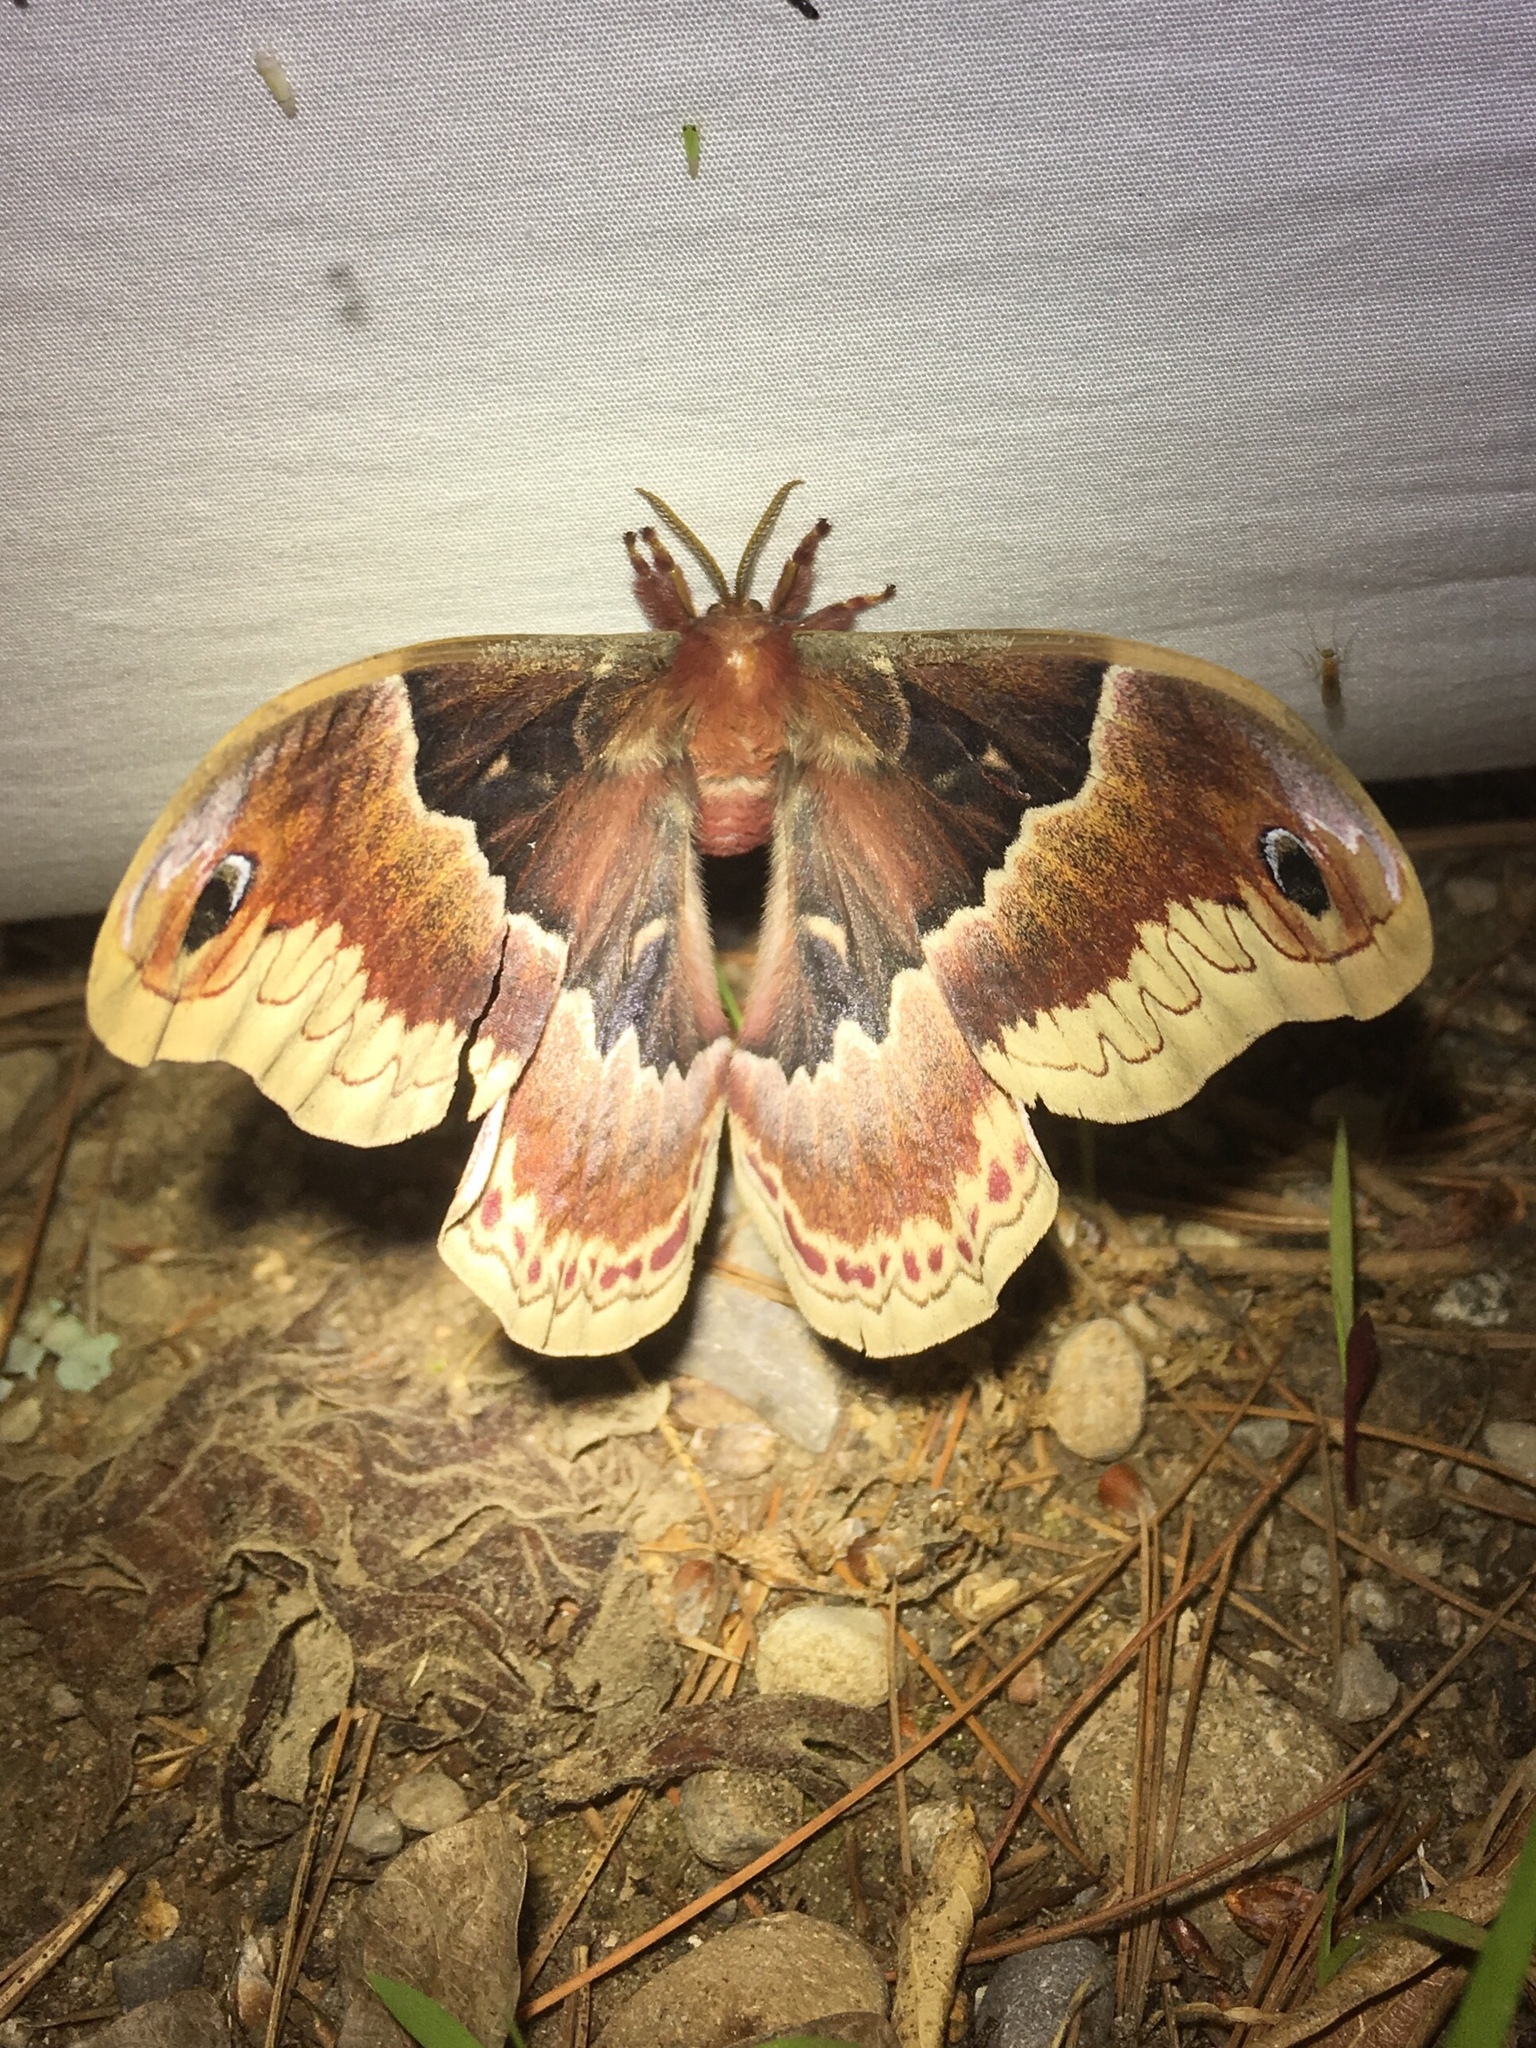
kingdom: Animalia
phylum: Arthropoda
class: Insecta
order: Lepidoptera
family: Saturniidae
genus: Callosamia
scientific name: Callosamia promethea
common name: Promethea silkmoth
